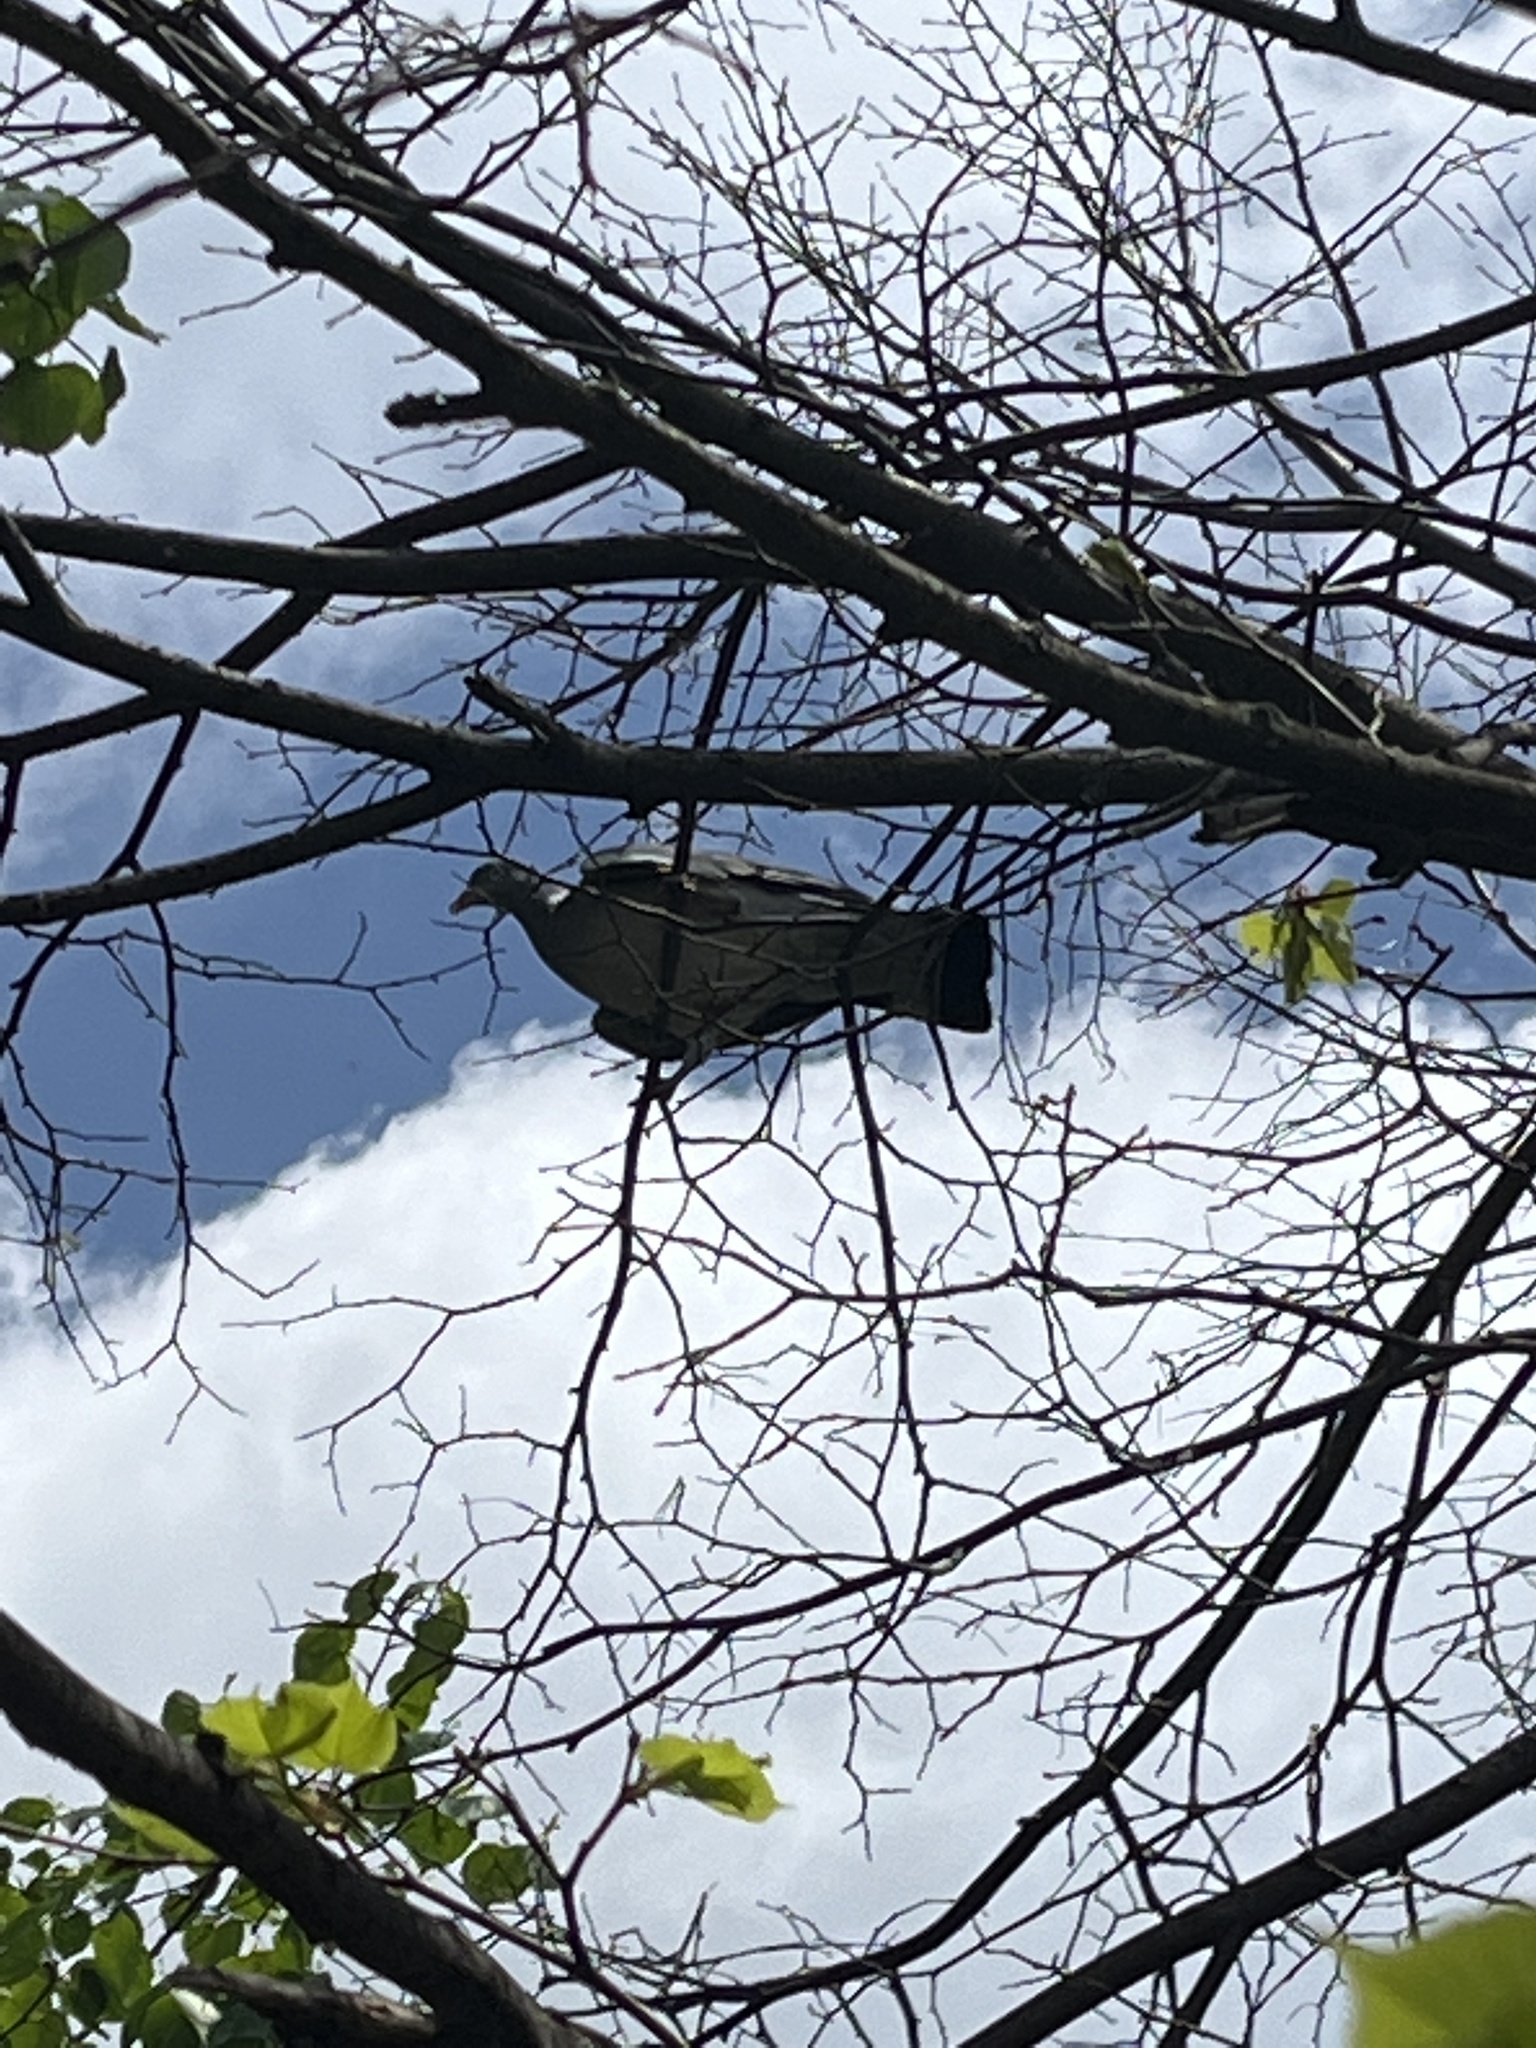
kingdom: Animalia
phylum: Chordata
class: Aves
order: Columbiformes
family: Columbidae
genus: Columba
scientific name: Columba palumbus
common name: Common wood pigeon
